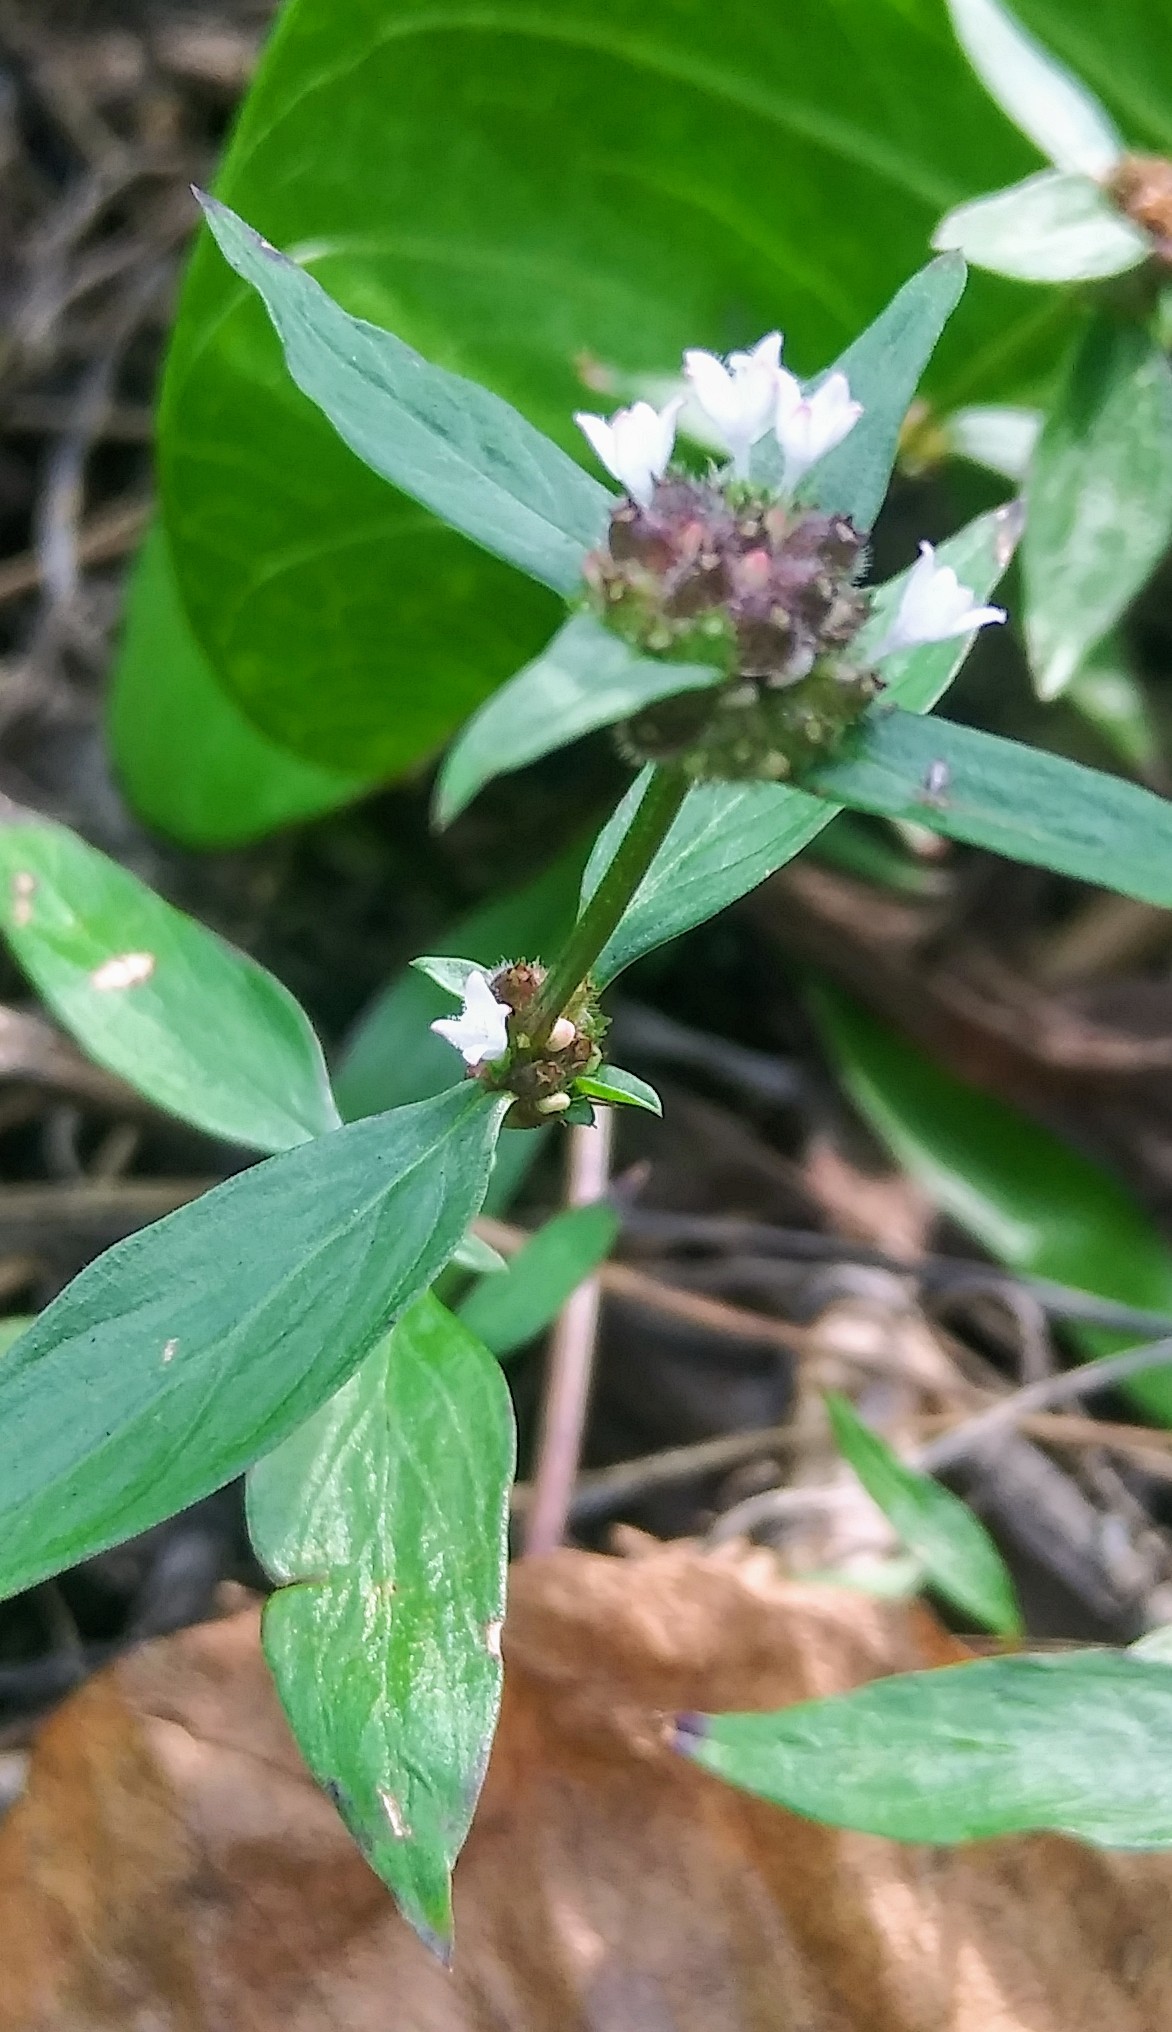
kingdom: Plantae
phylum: Tracheophyta
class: Magnoliopsida
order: Gentianales
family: Rubiaceae
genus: Spermacoce
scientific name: Spermacoce remota
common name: Woodland false buttonweed
